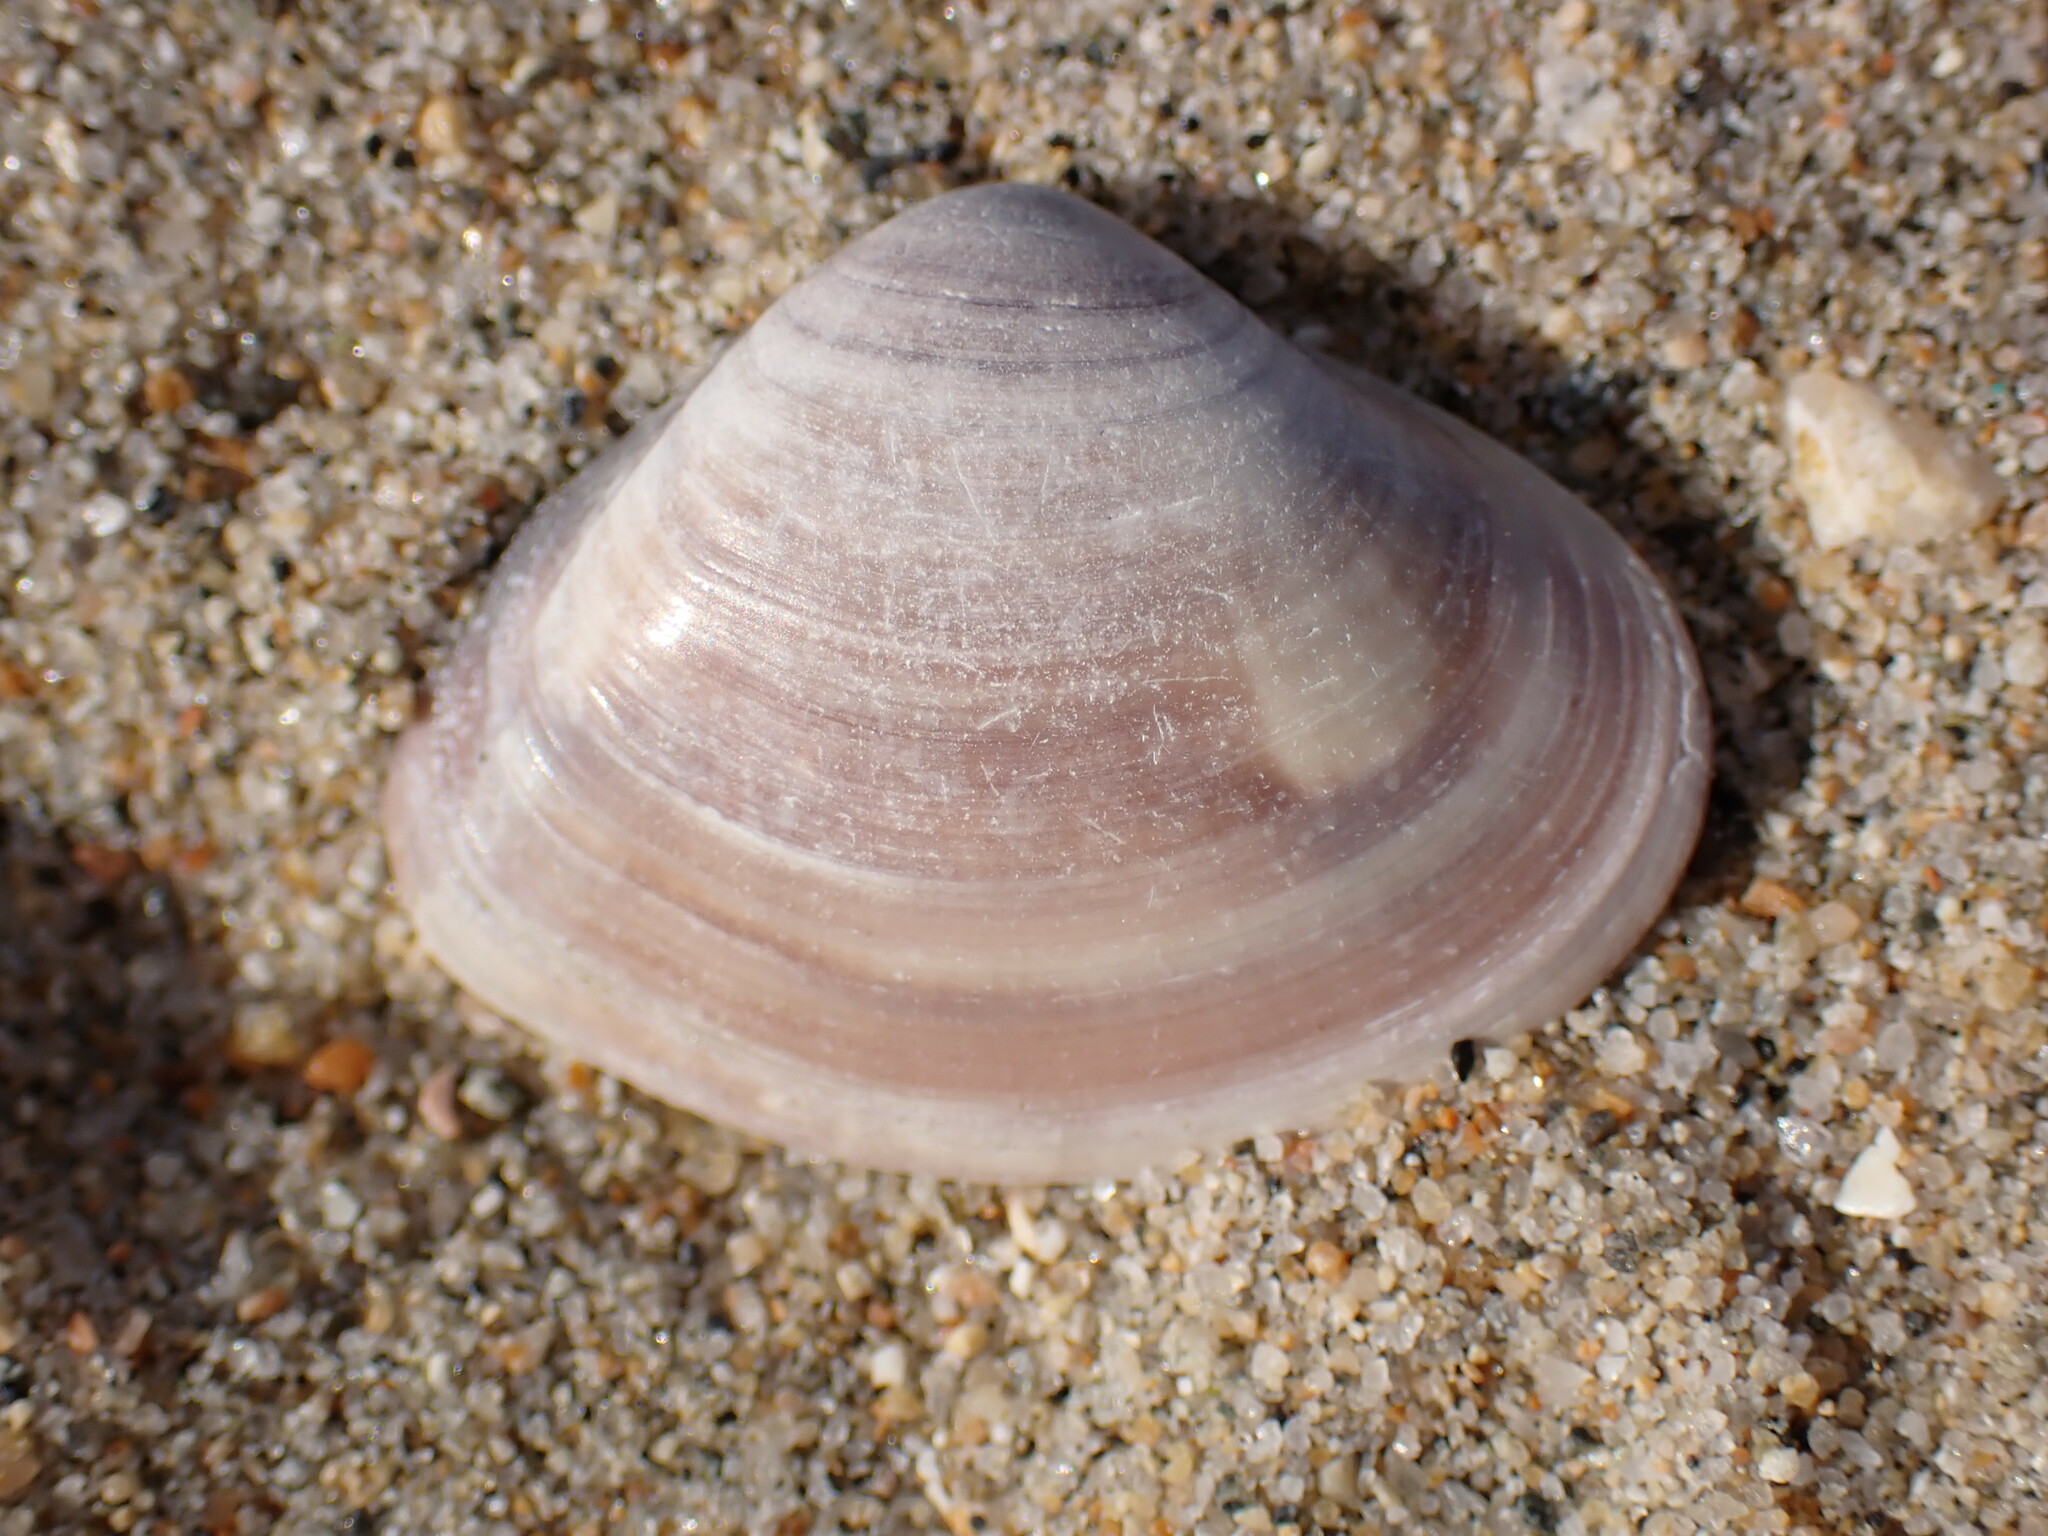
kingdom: Animalia
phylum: Mollusca
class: Bivalvia
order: Venerida
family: Veneridae
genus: Tivela
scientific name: Tivela stultorum
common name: Pismo clam
